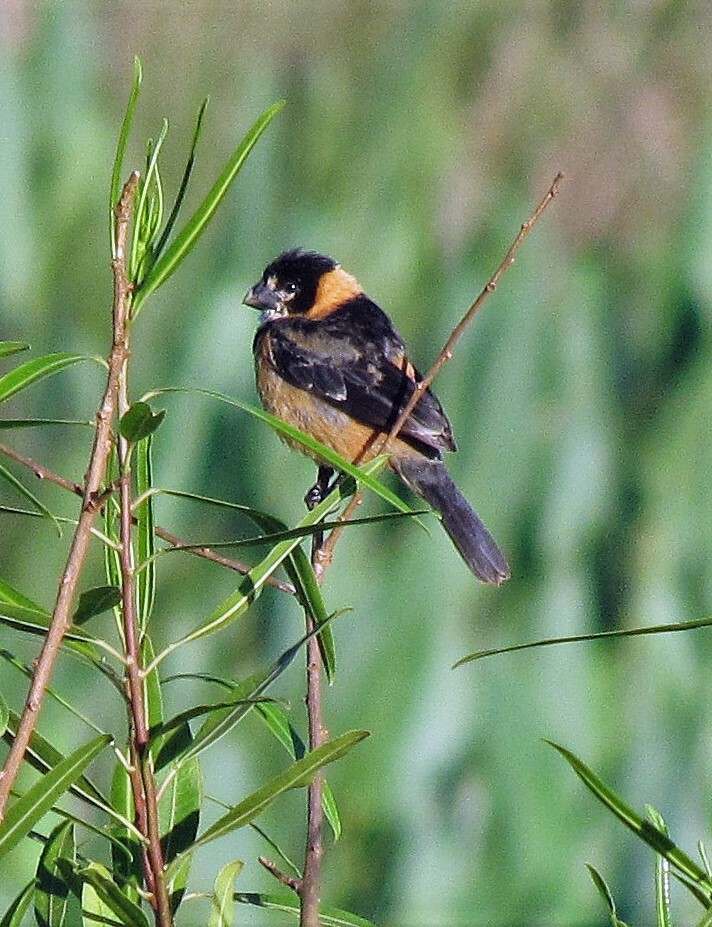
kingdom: Animalia
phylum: Chordata
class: Aves
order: Passeriformes
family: Thraupidae
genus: Sporophila
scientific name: Sporophila collaris
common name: Rusty-collared seedeater
